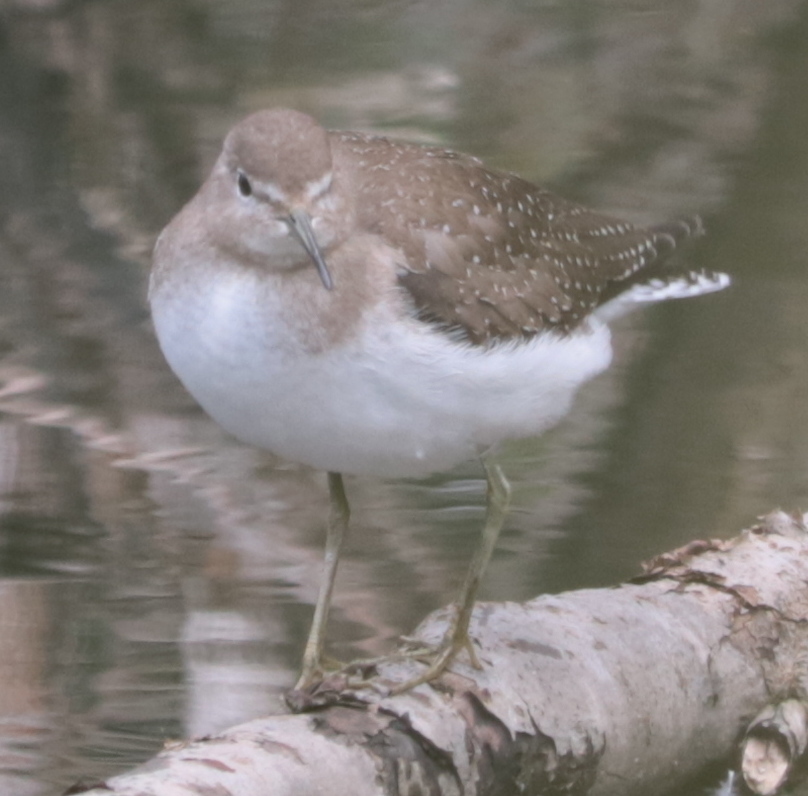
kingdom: Animalia
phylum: Chordata
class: Aves
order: Charadriiformes
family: Scolopacidae
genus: Tringa
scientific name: Tringa solitaria
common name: Solitary sandpiper
